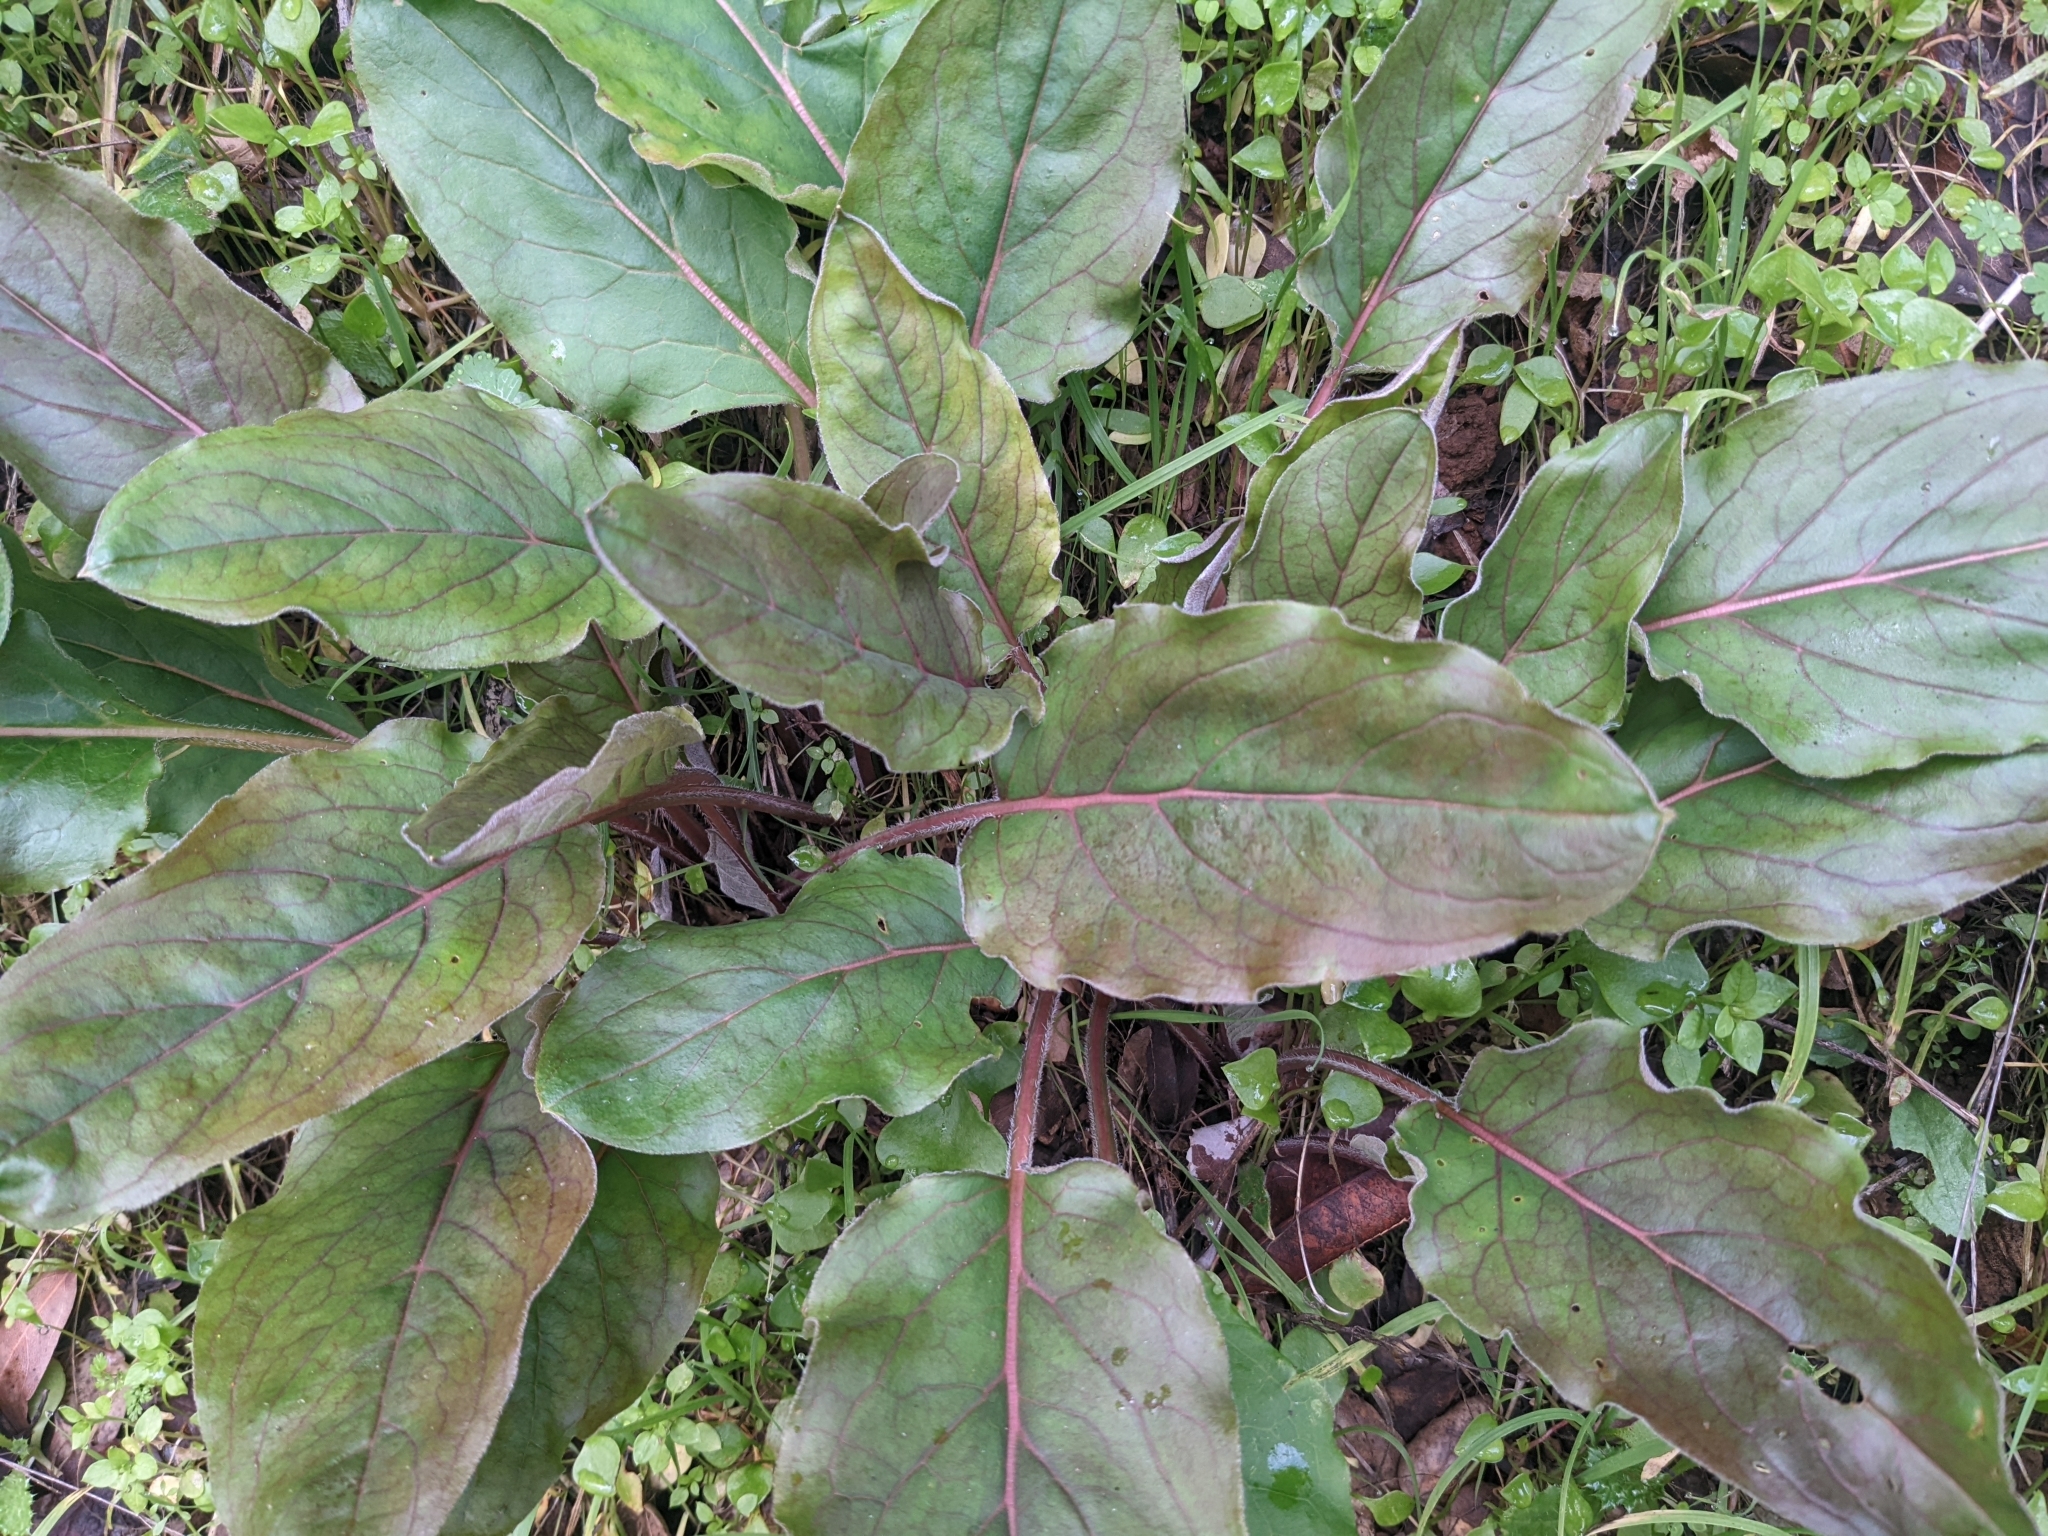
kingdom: Plantae
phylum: Tracheophyta
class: Magnoliopsida
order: Boraginales
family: Boraginaceae
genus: Adelinia
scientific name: Adelinia grande
